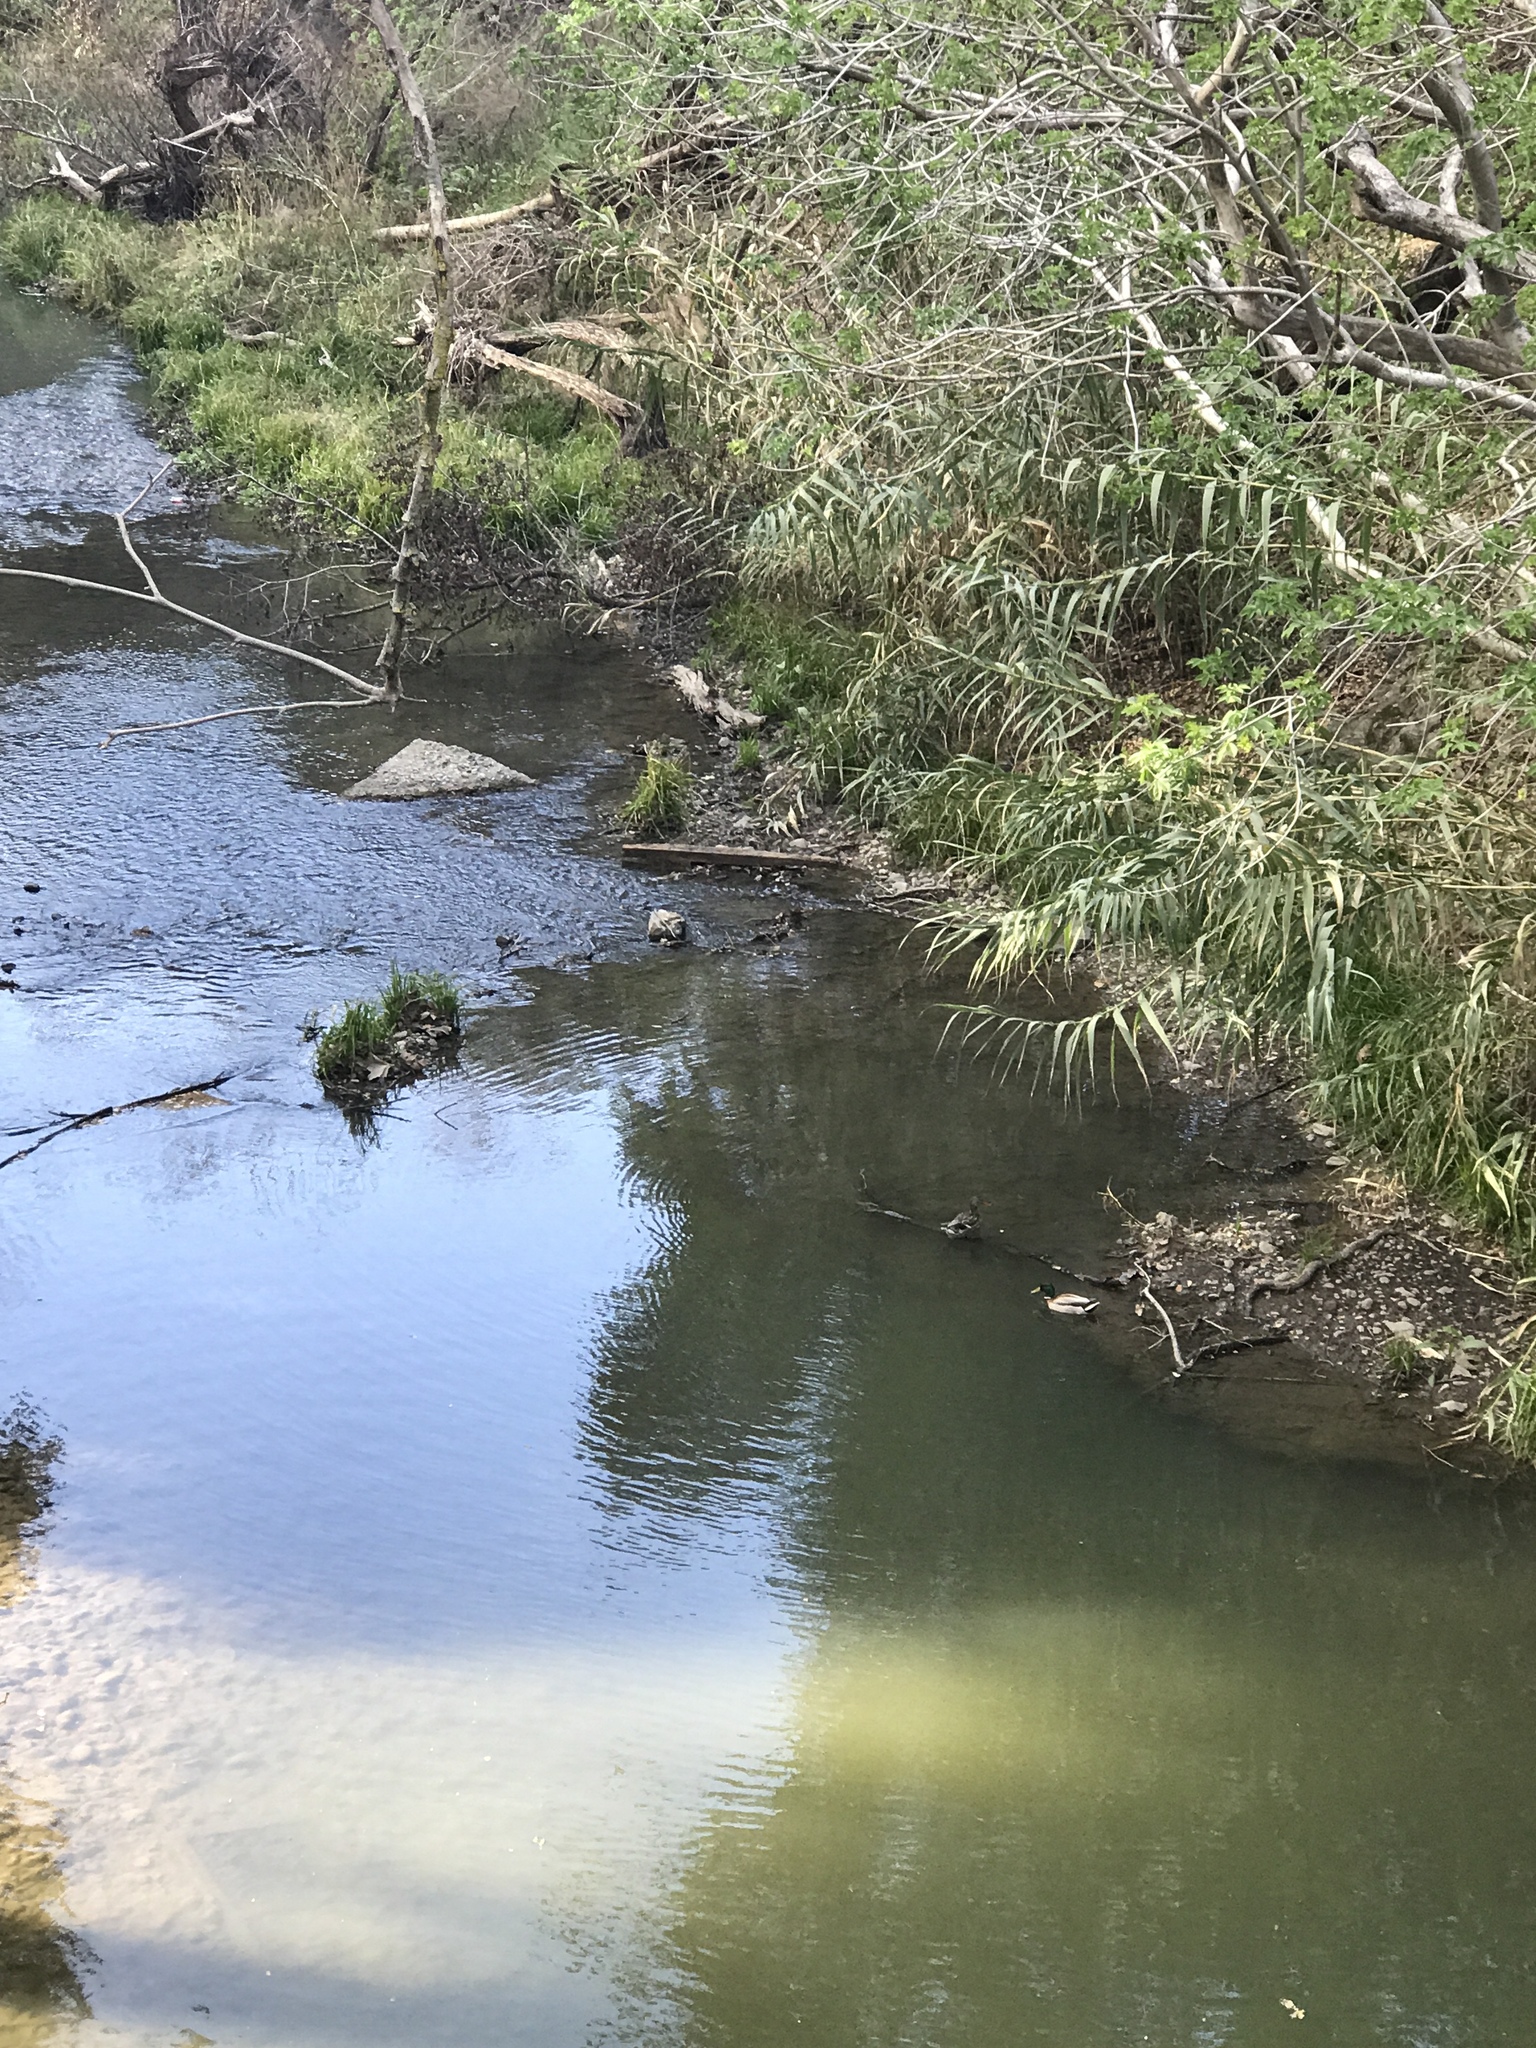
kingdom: Animalia
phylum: Chordata
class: Aves
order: Anseriformes
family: Anatidae
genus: Anas
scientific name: Anas platyrhynchos
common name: Mallard
